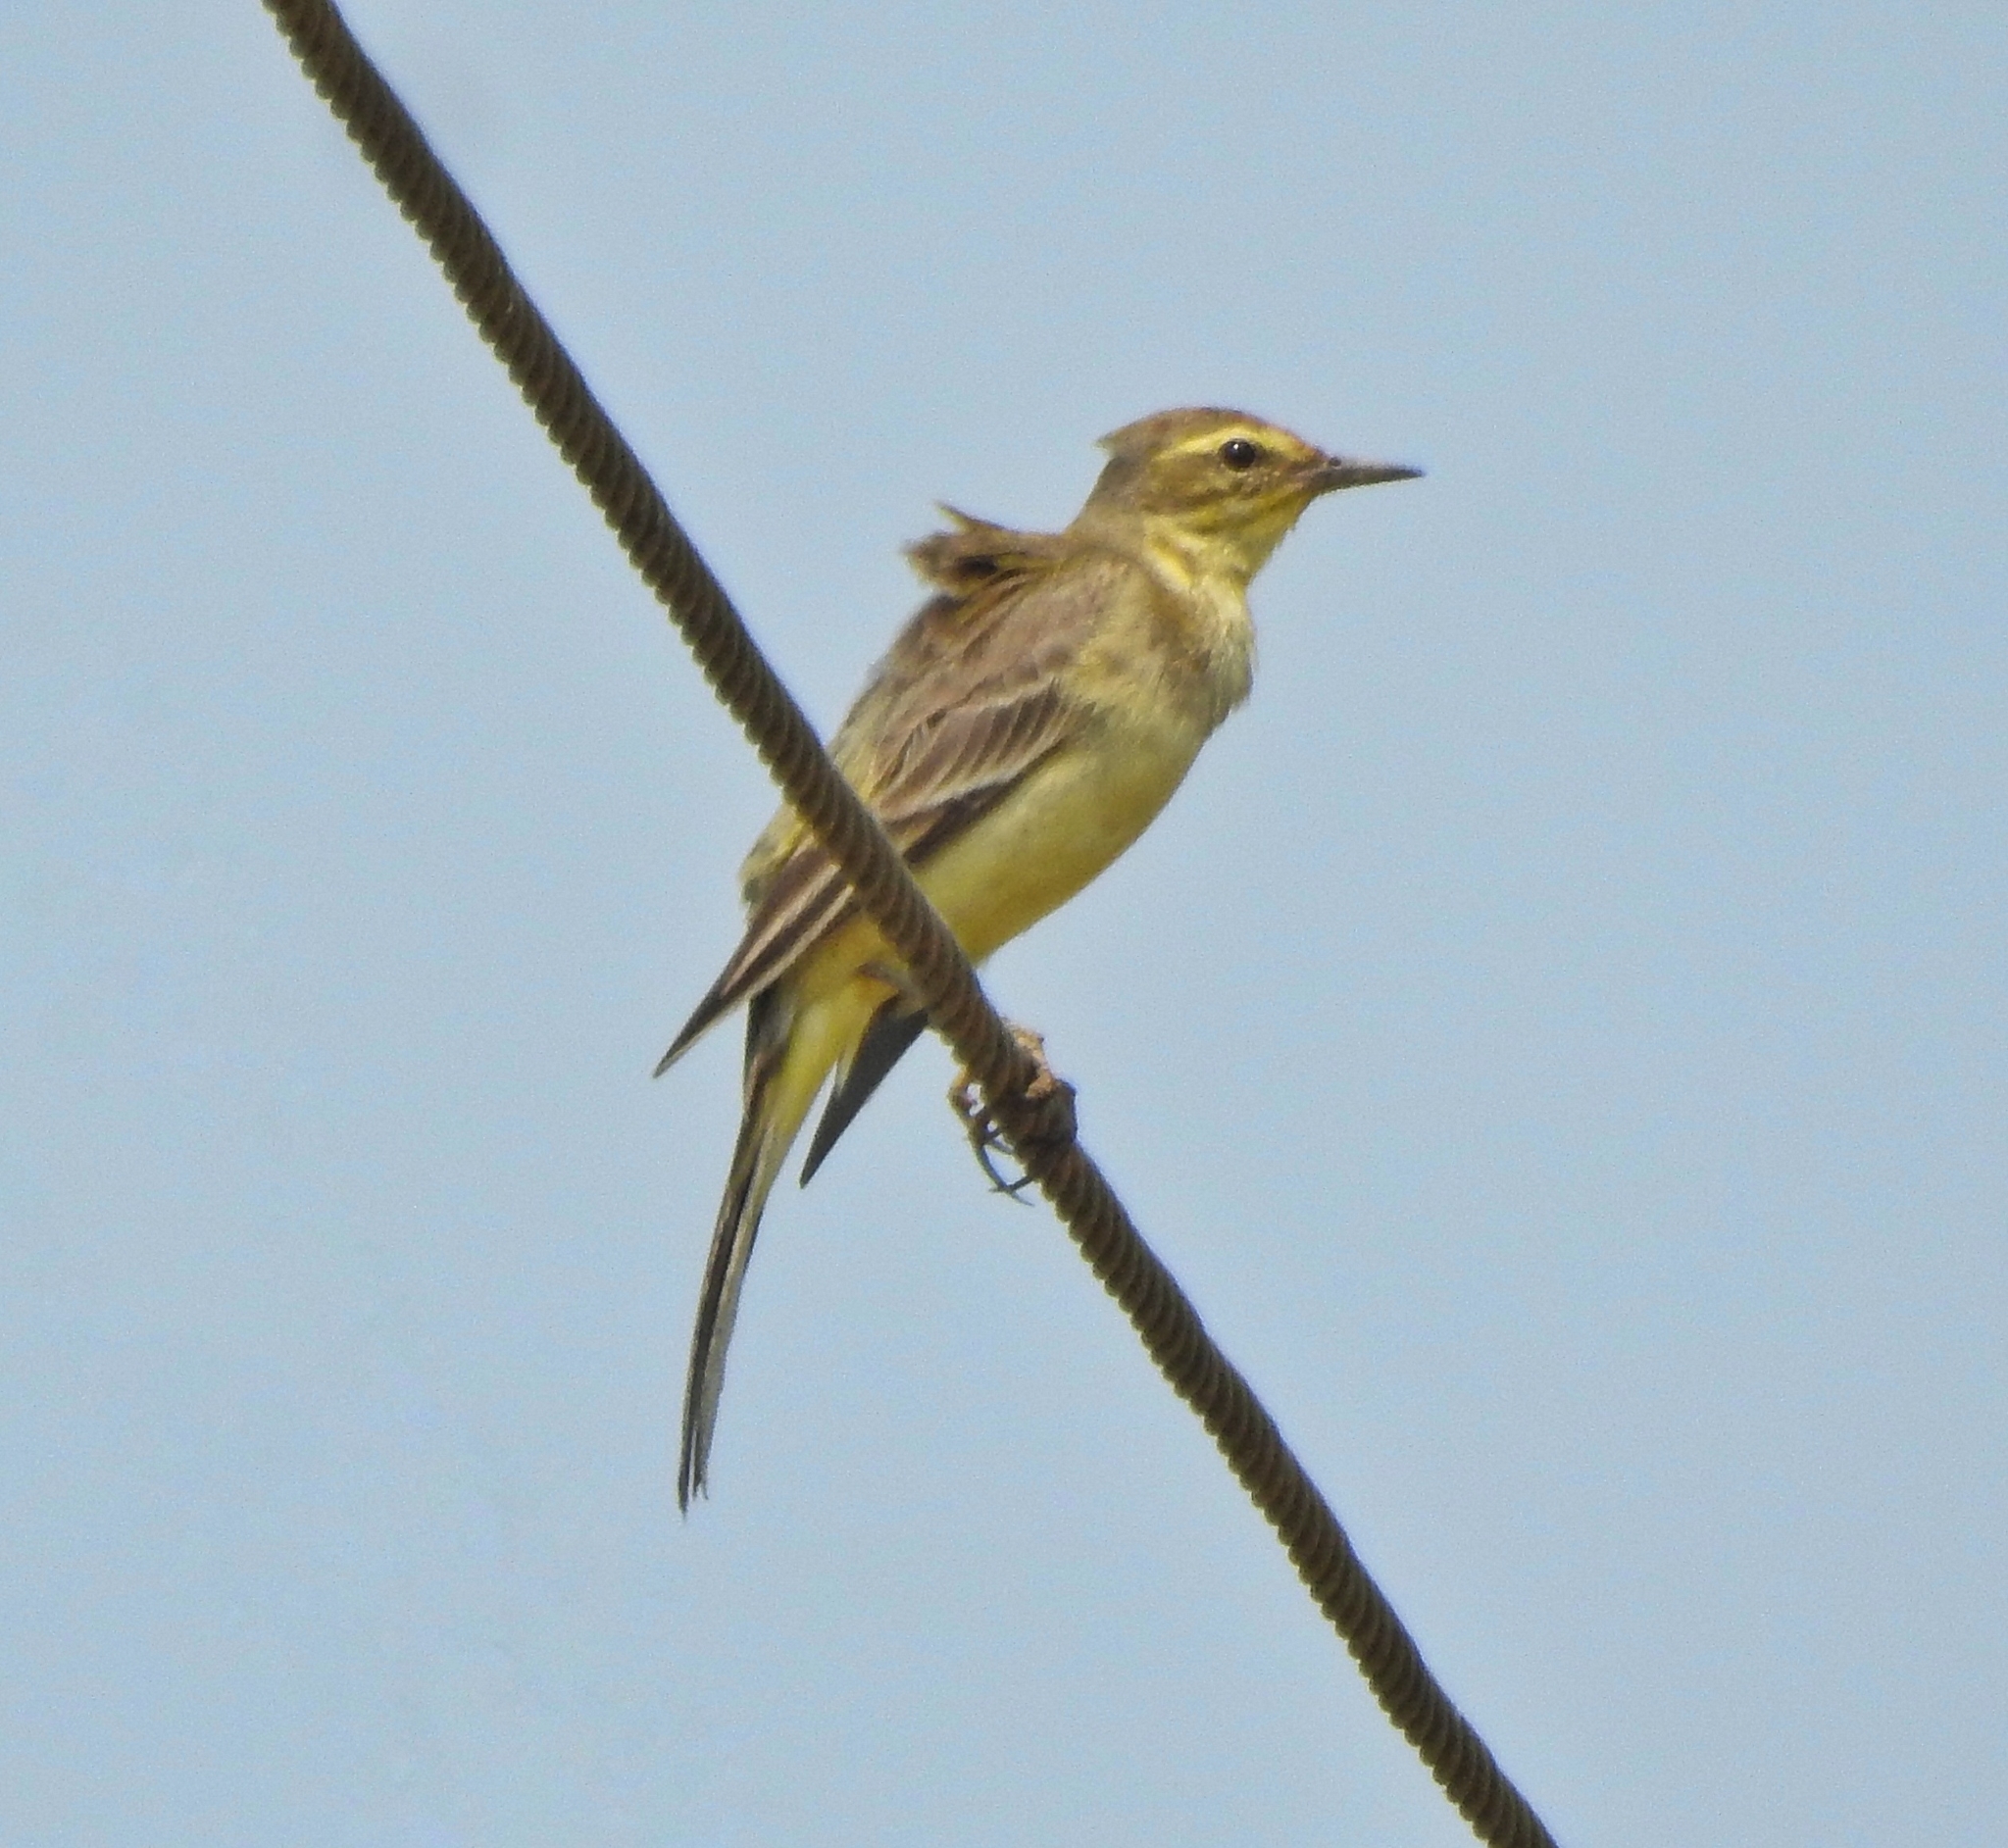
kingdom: Animalia
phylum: Chordata
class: Aves
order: Passeriformes
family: Motacillidae
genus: Motacilla
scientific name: Motacilla flava
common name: Western yellow wagtail
